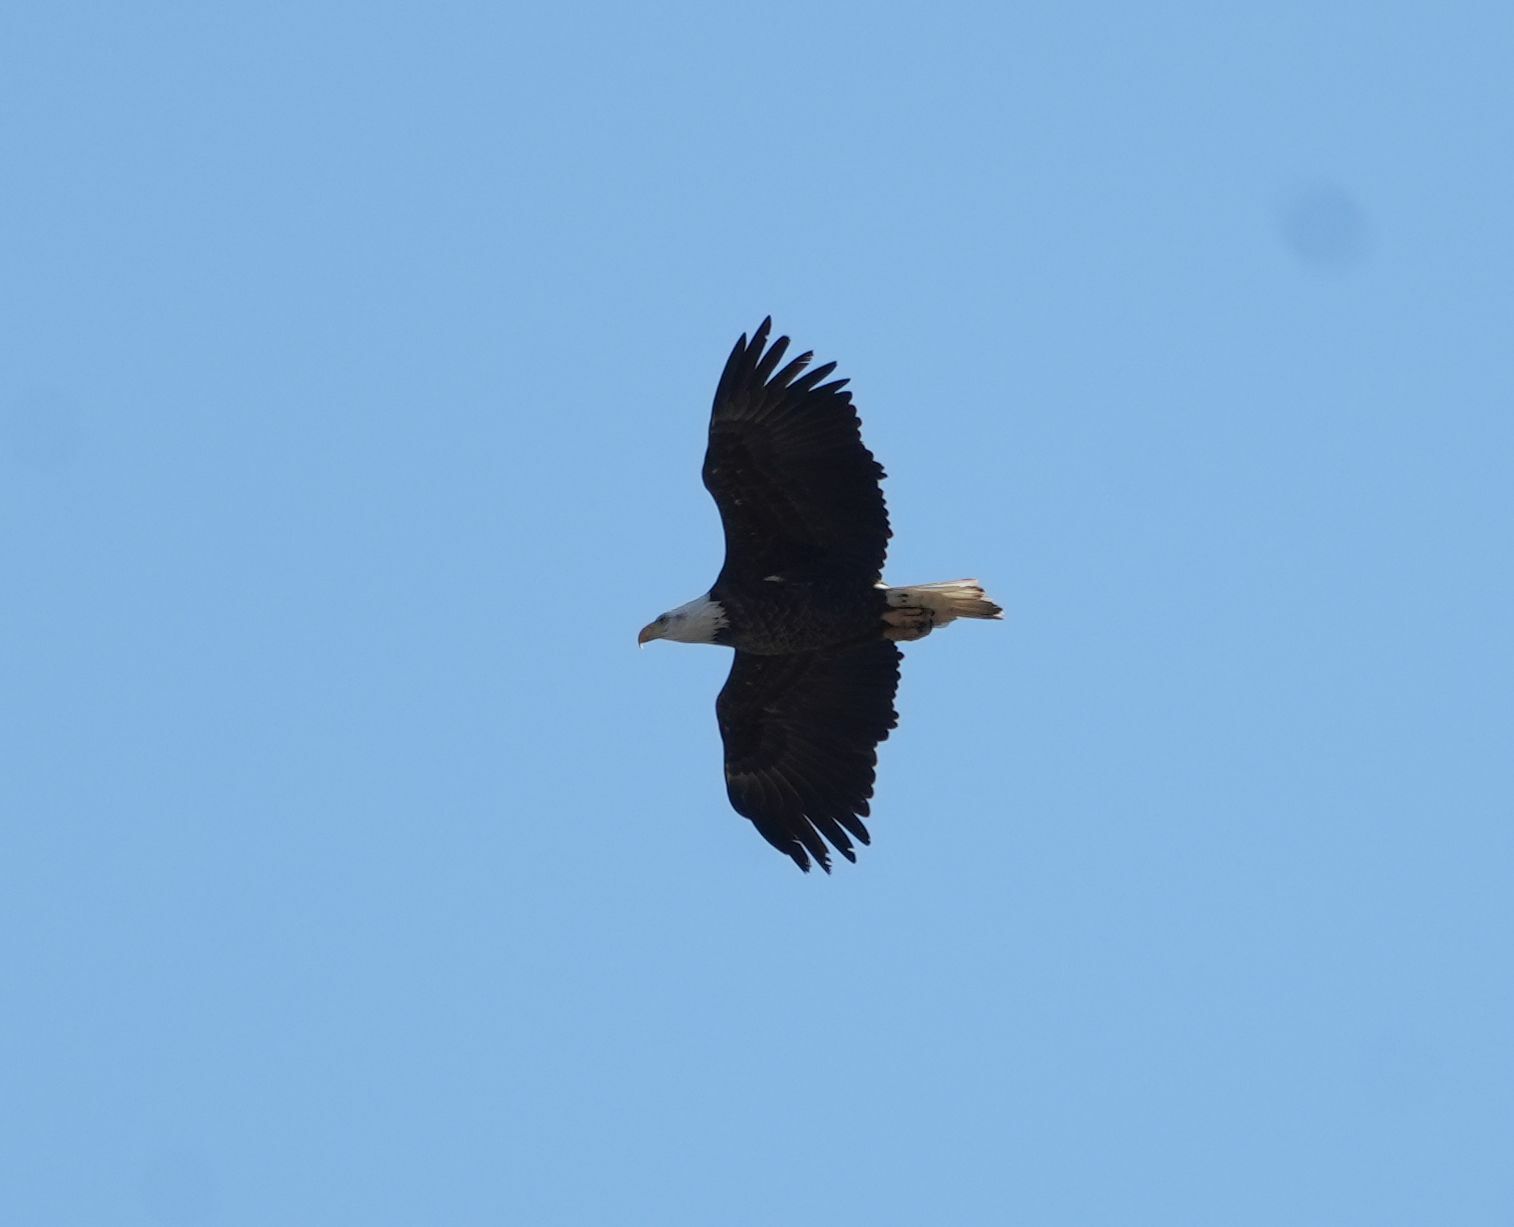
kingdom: Animalia
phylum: Chordata
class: Aves
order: Accipitriformes
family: Accipitridae
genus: Haliaeetus
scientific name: Haliaeetus leucocephalus
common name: Bald eagle
